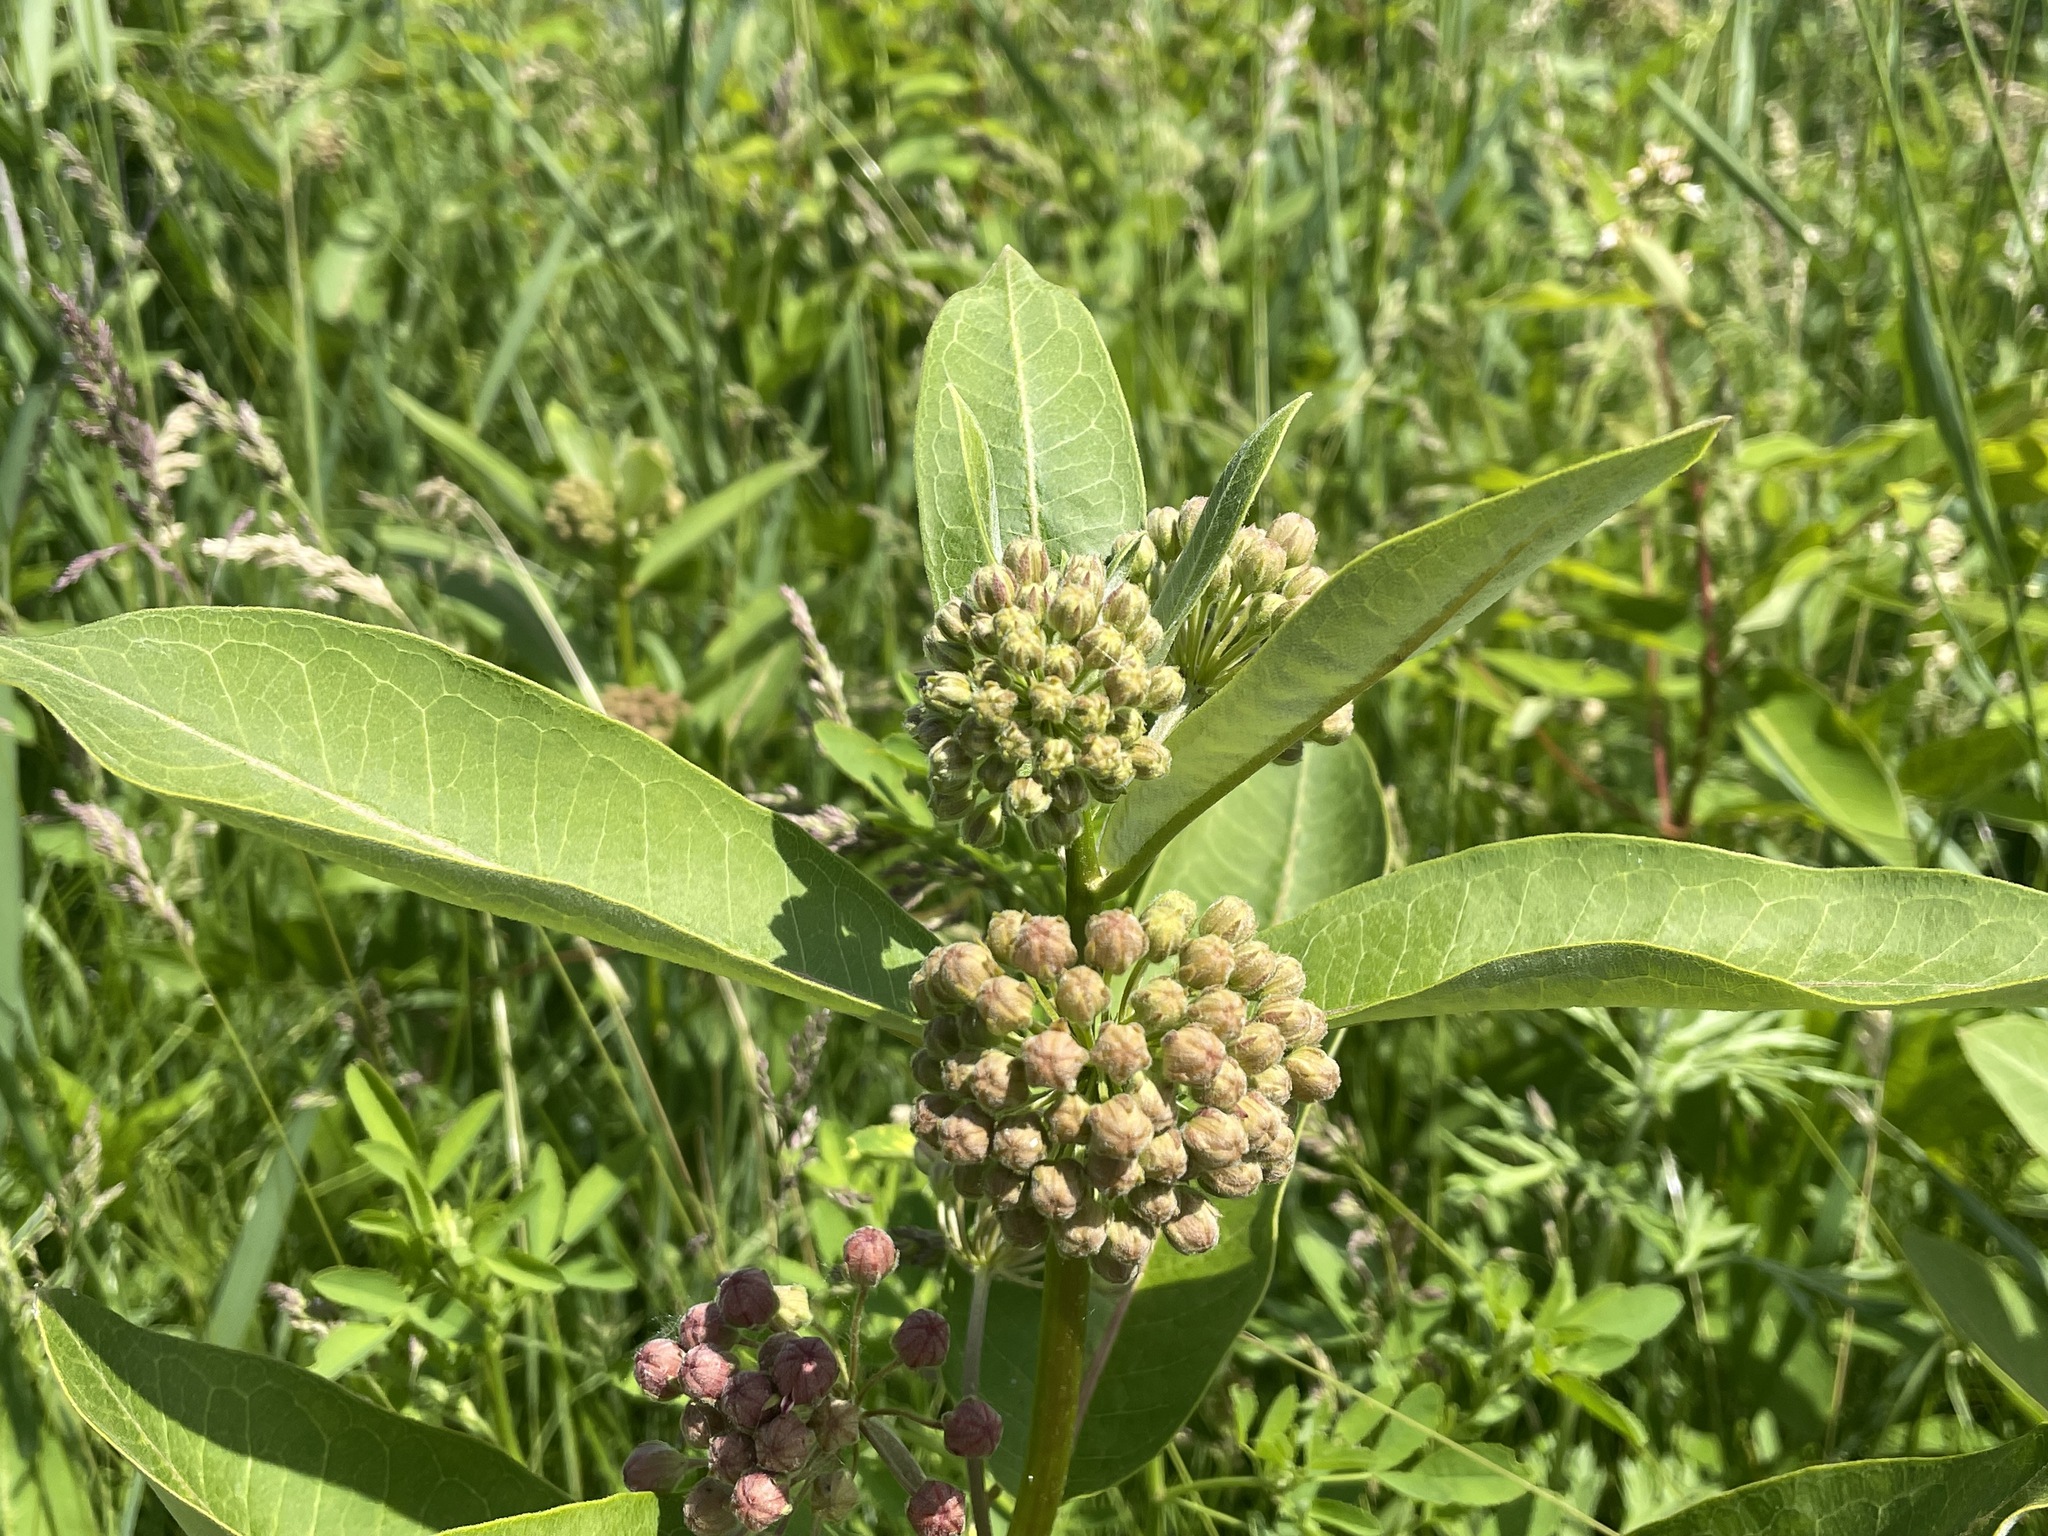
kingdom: Plantae
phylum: Tracheophyta
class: Magnoliopsida
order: Gentianales
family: Apocynaceae
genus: Asclepias
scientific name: Asclepias syriaca
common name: Common milkweed
